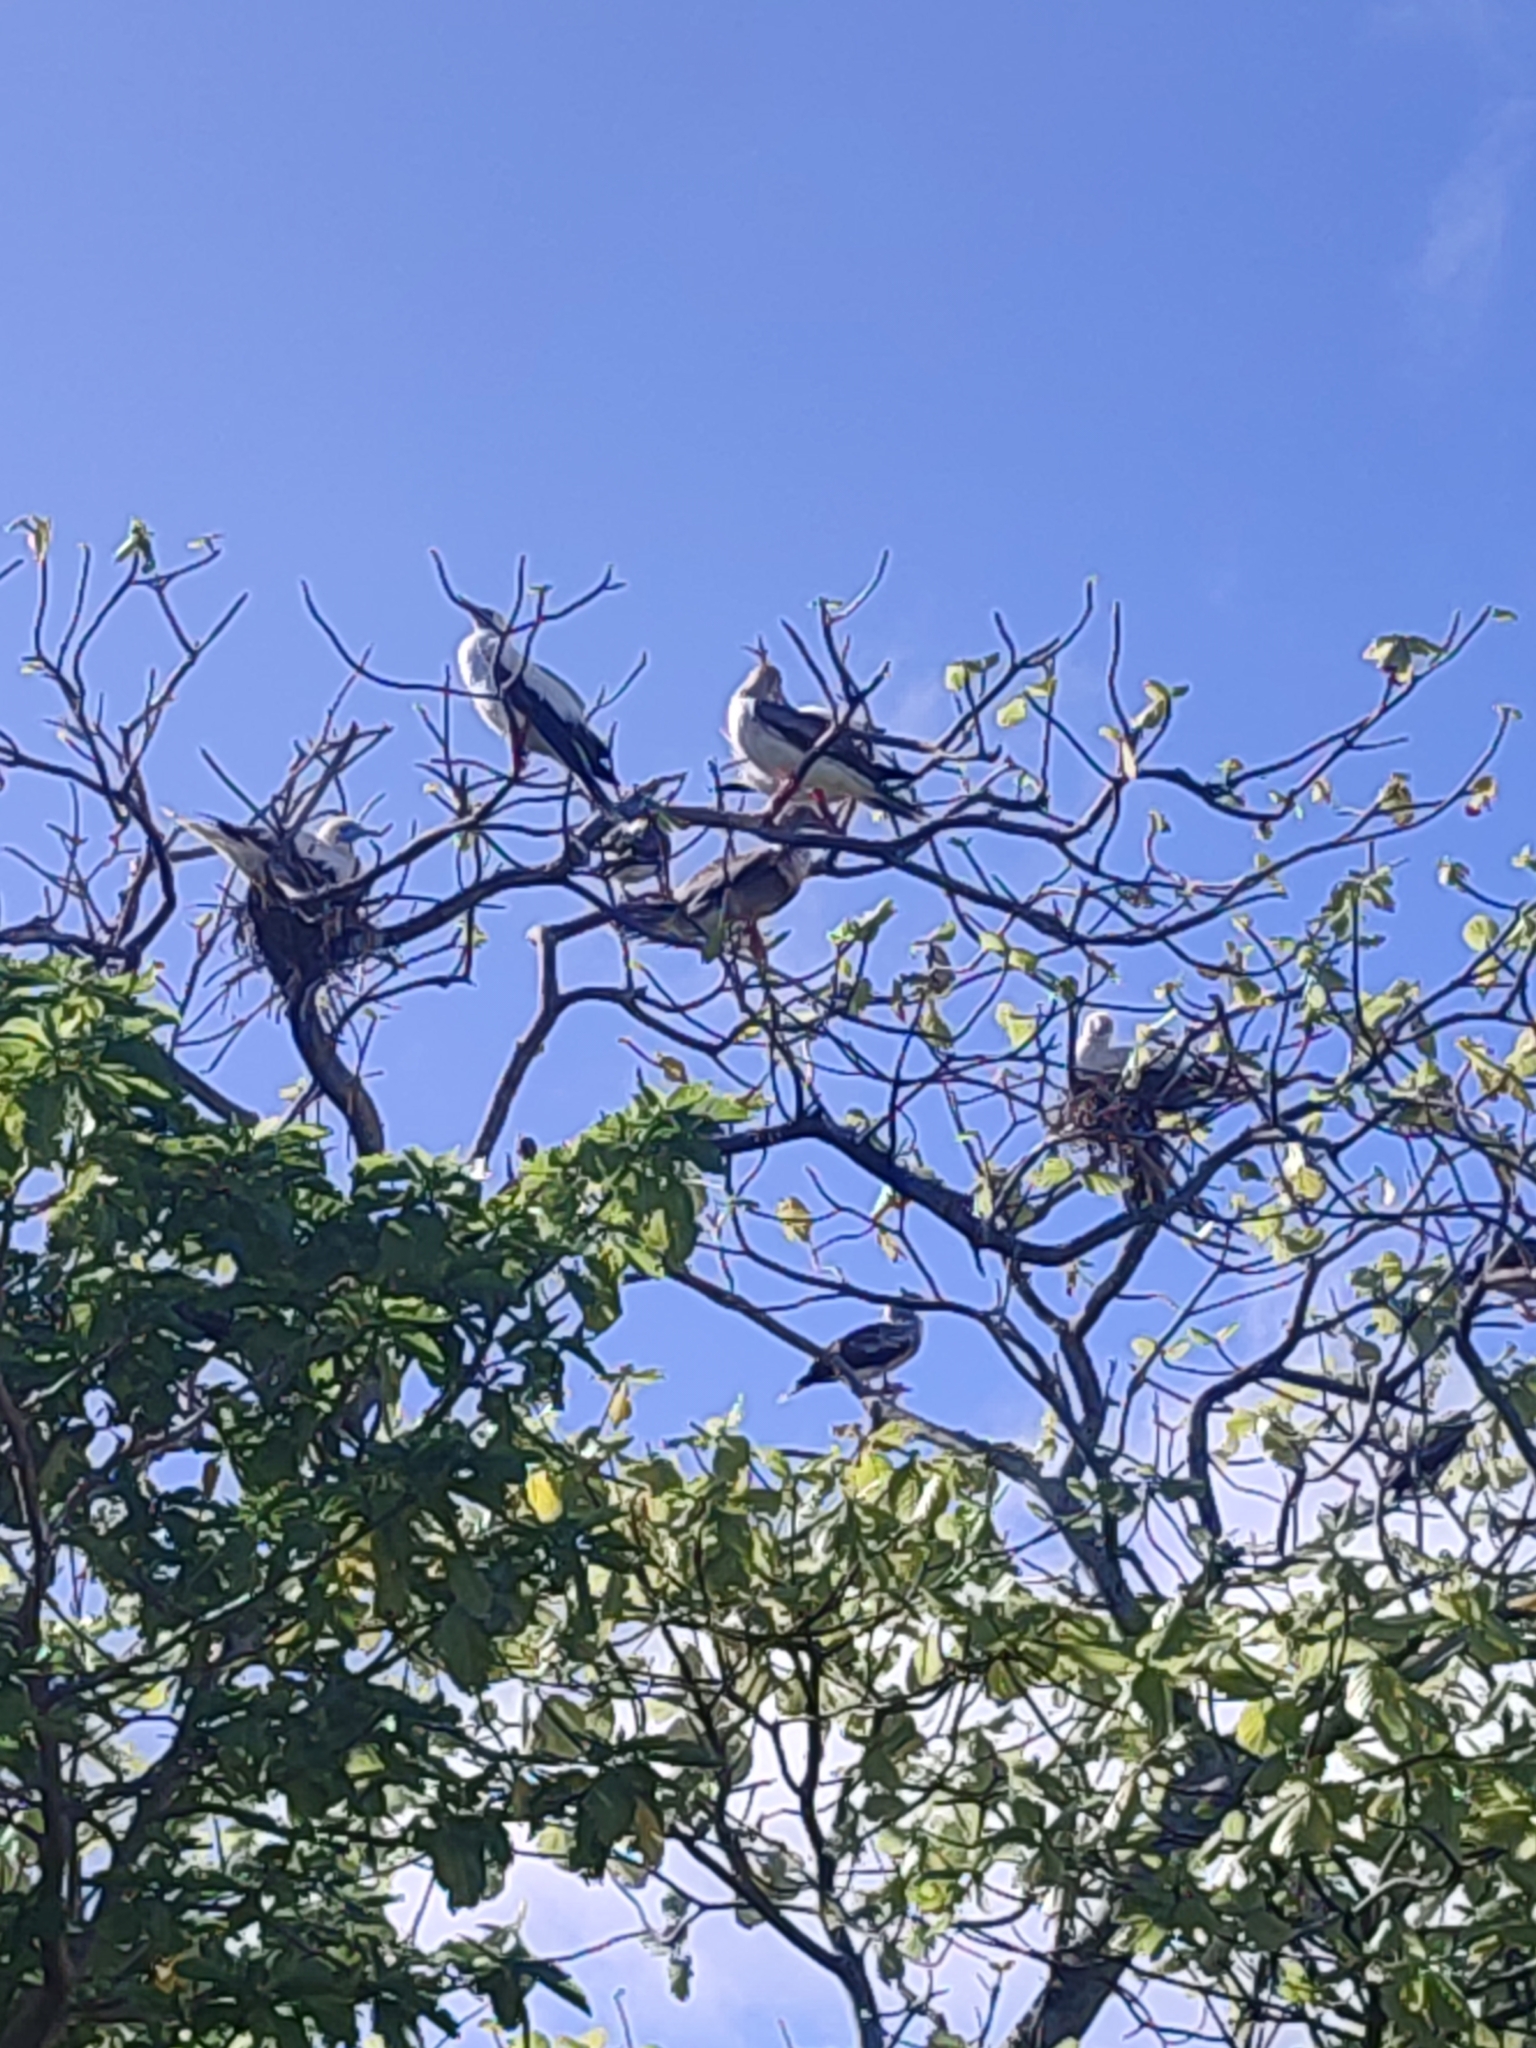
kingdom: Animalia
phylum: Chordata
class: Aves
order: Suliformes
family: Sulidae
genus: Sula
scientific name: Sula sula
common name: Red-footed booby
